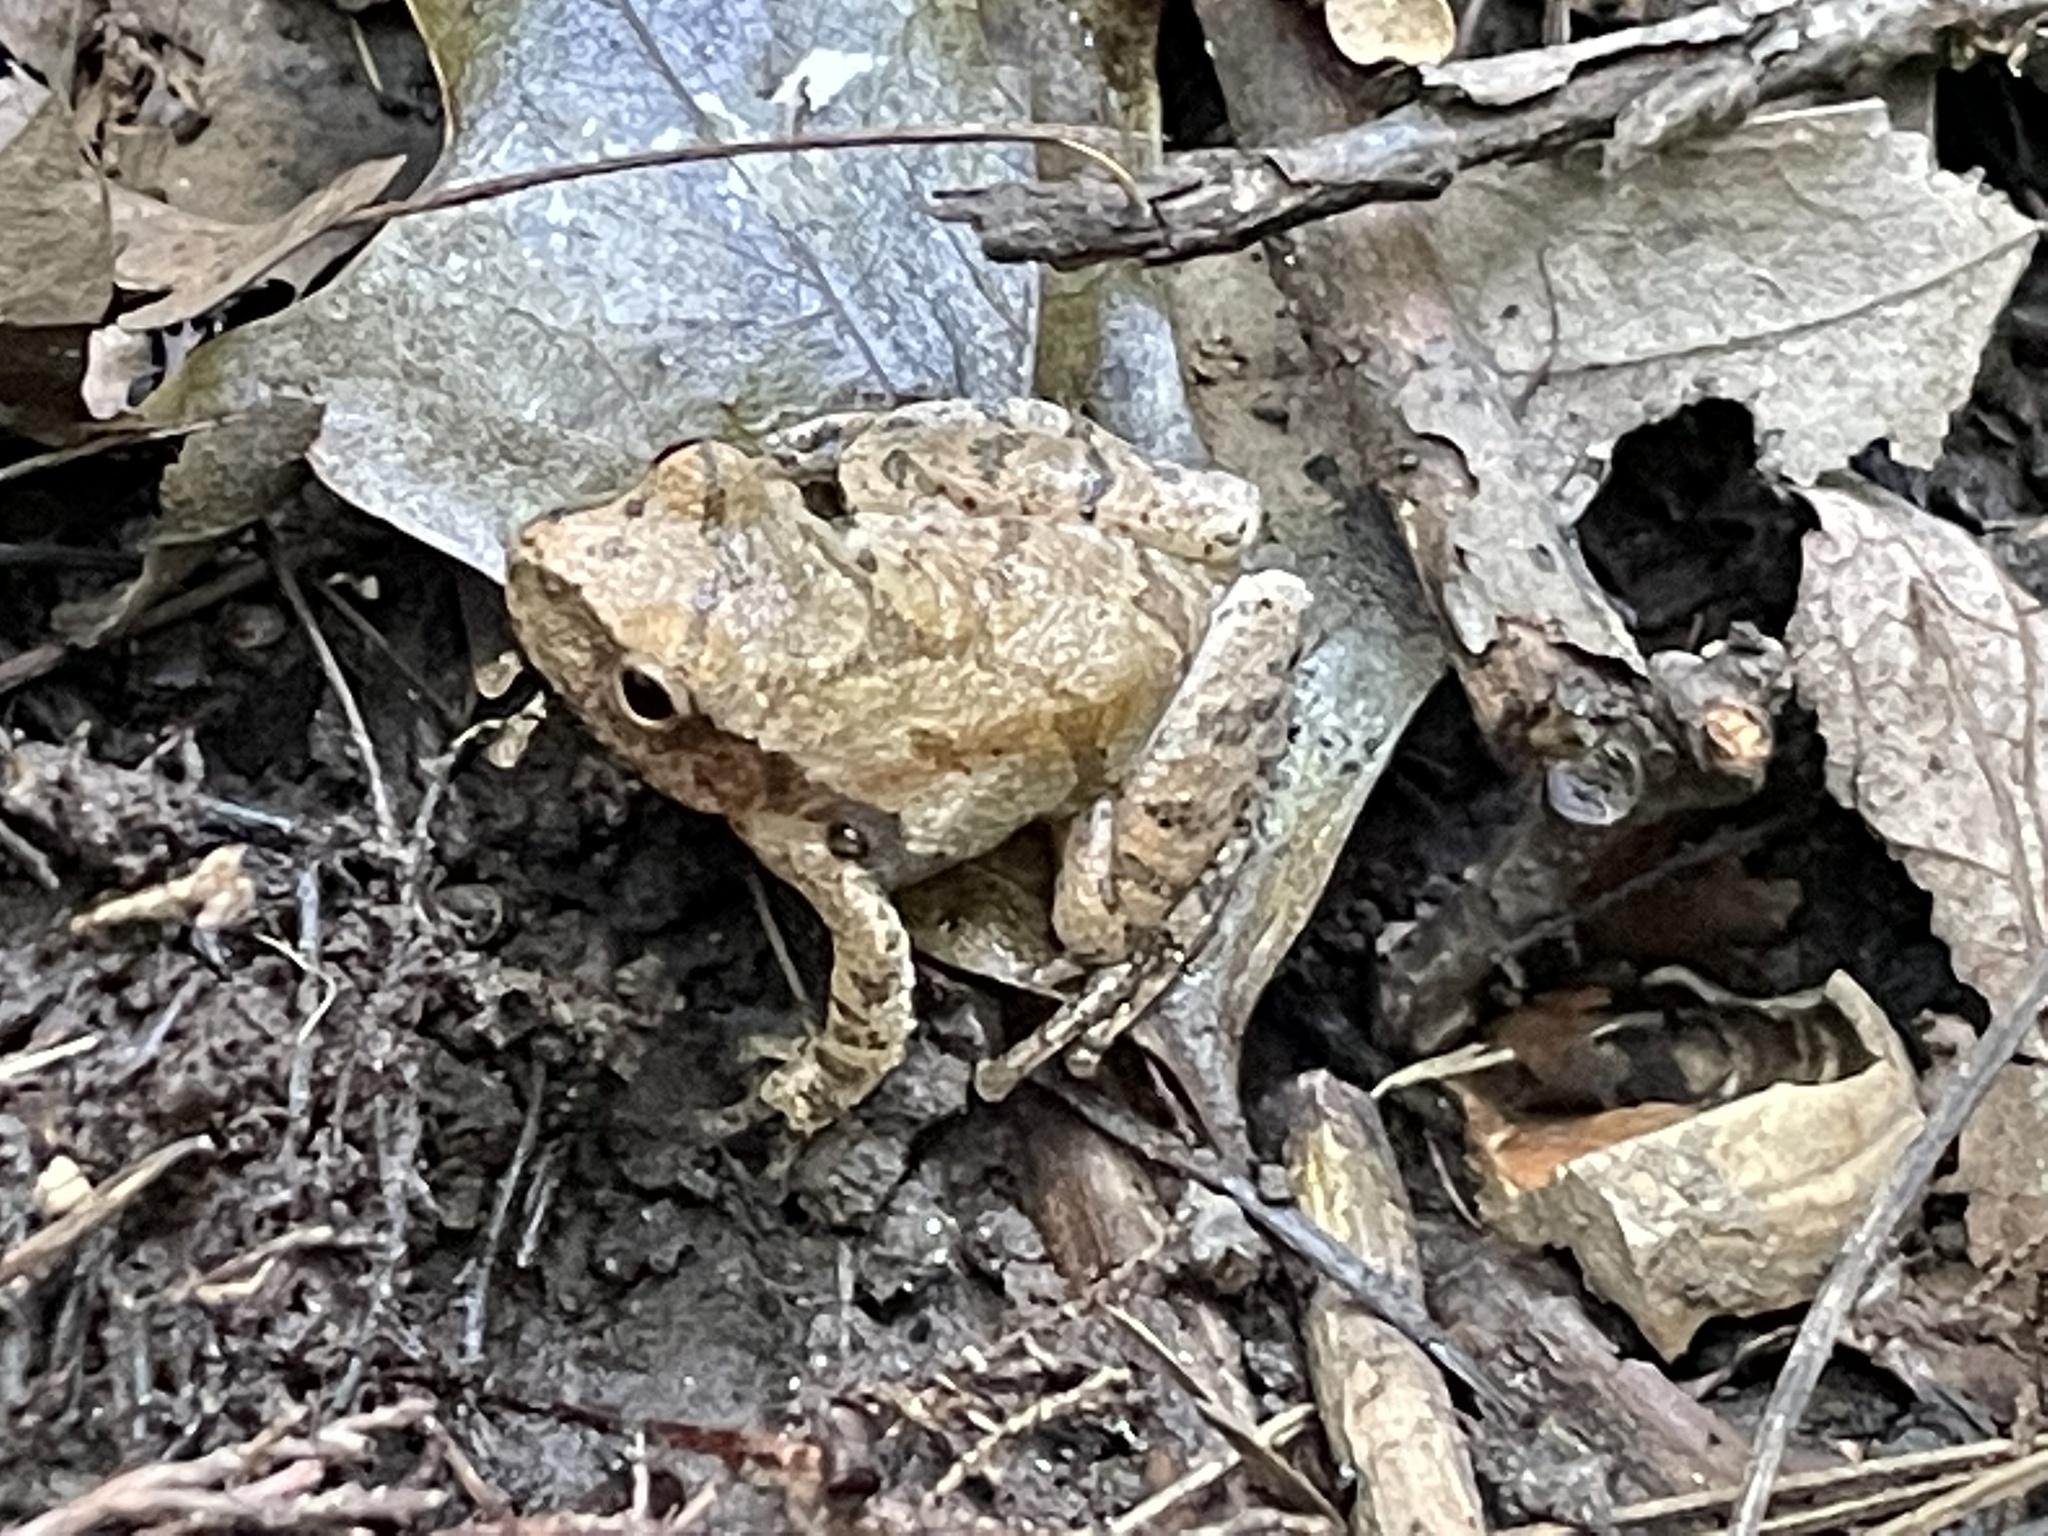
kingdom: Animalia
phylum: Chordata
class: Amphibia
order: Anura
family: Hylidae
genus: Pseudacris
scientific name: Pseudacris crucifer
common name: Spring peeper
